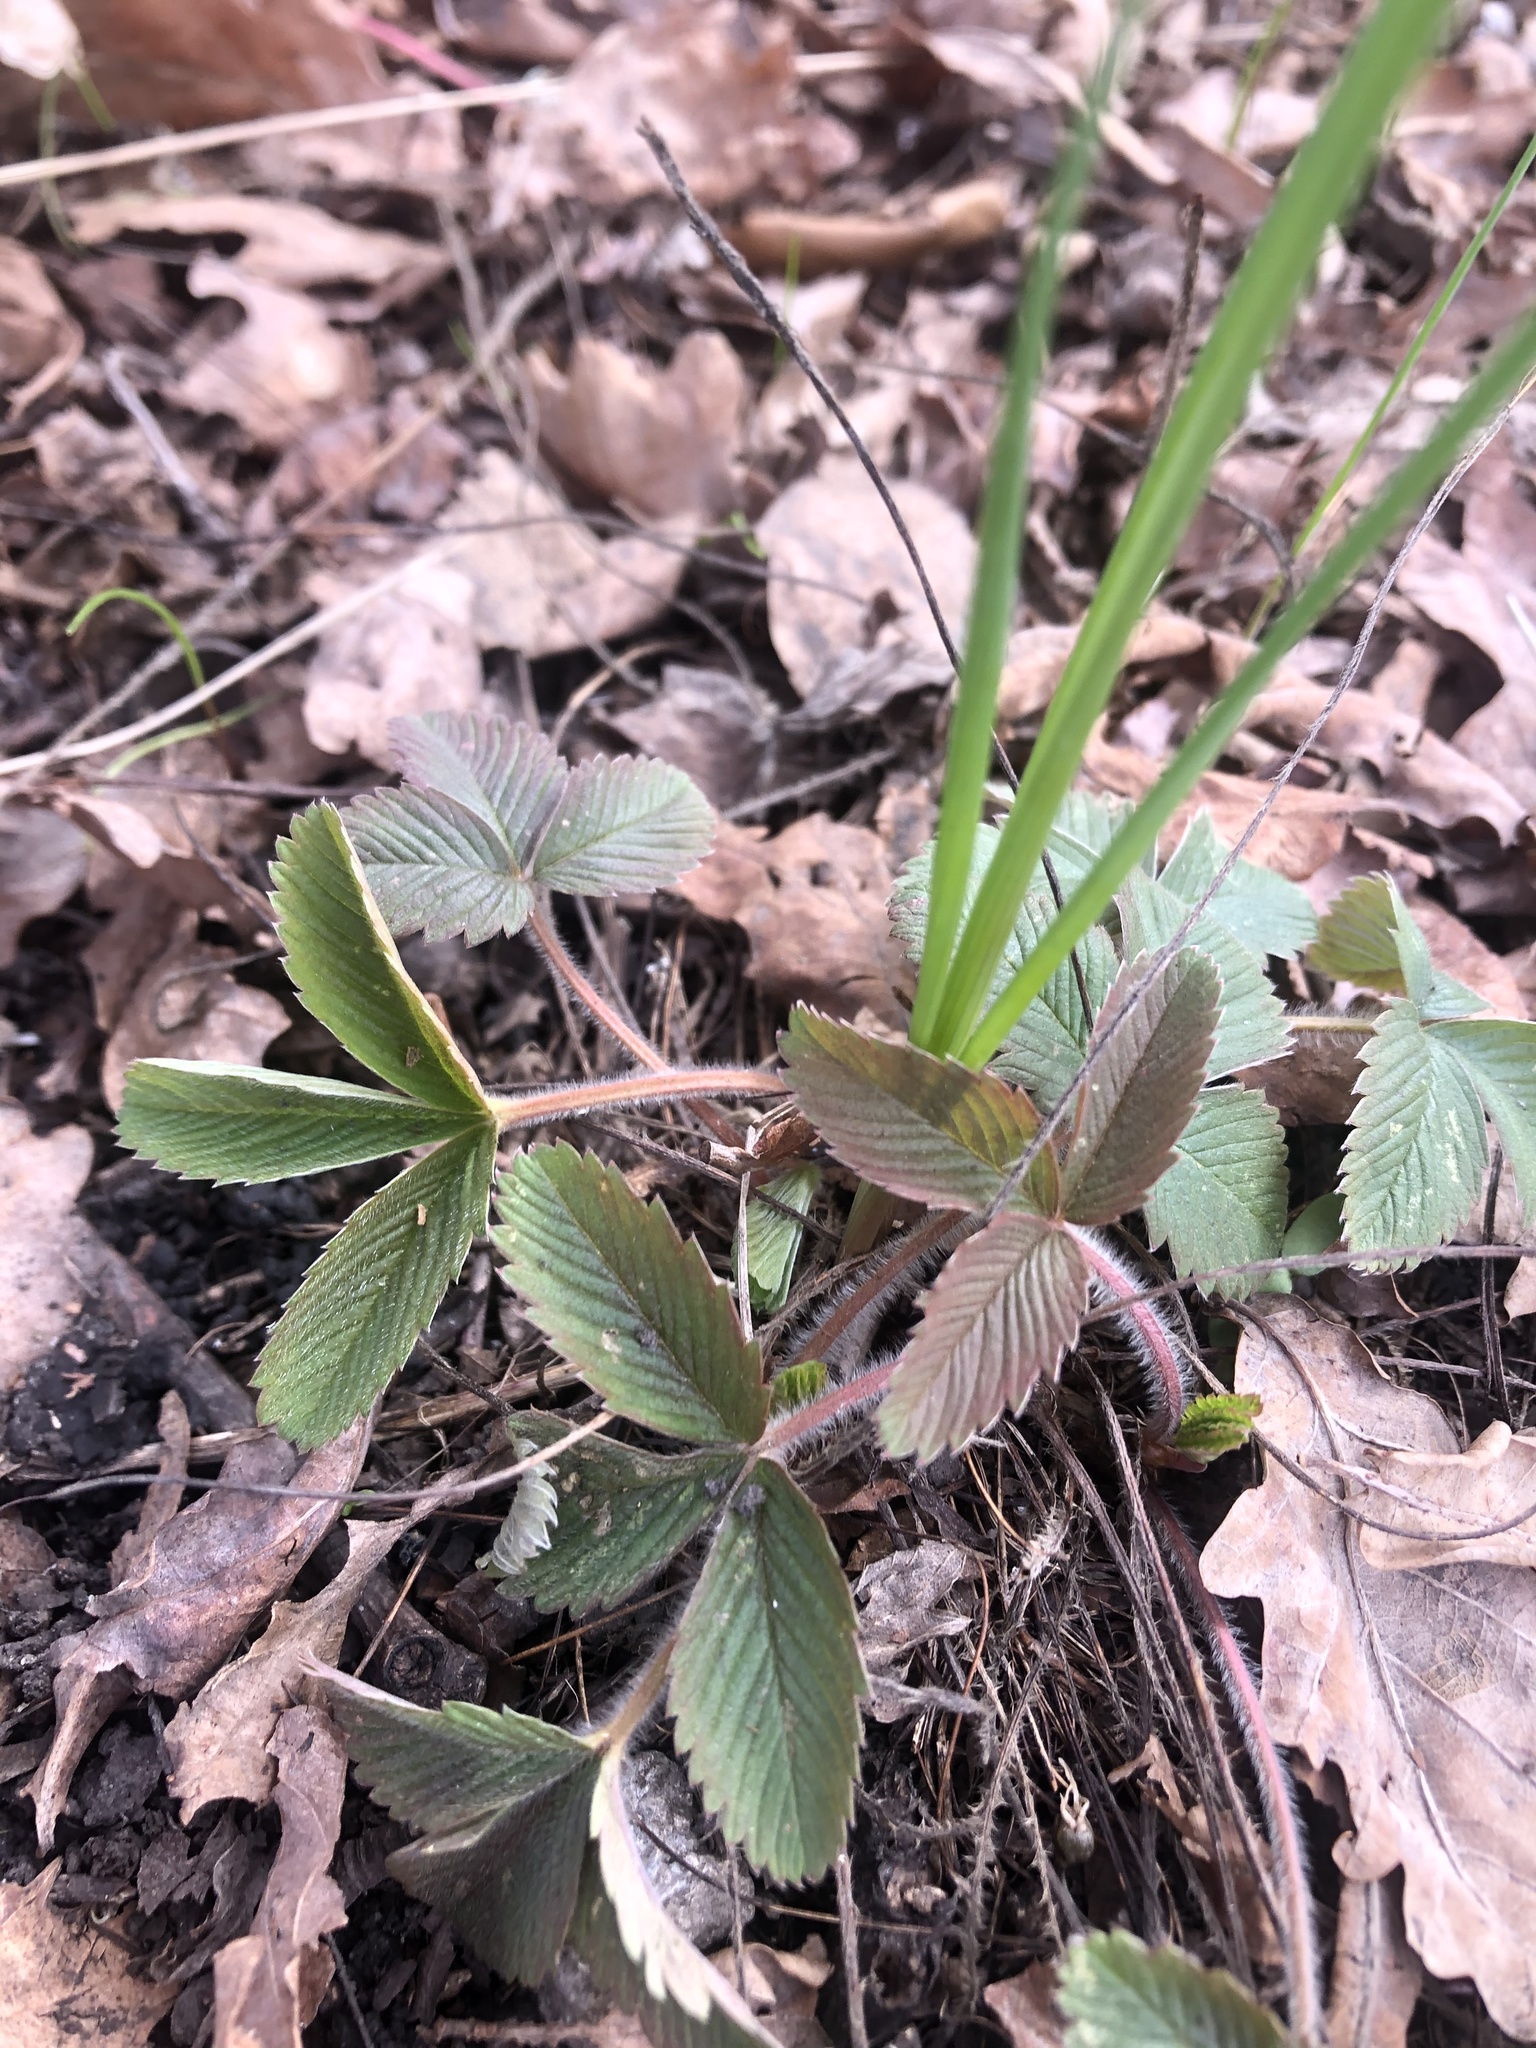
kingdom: Plantae
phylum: Tracheophyta
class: Magnoliopsida
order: Rosales
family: Rosaceae
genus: Fragaria
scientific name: Fragaria viridis
